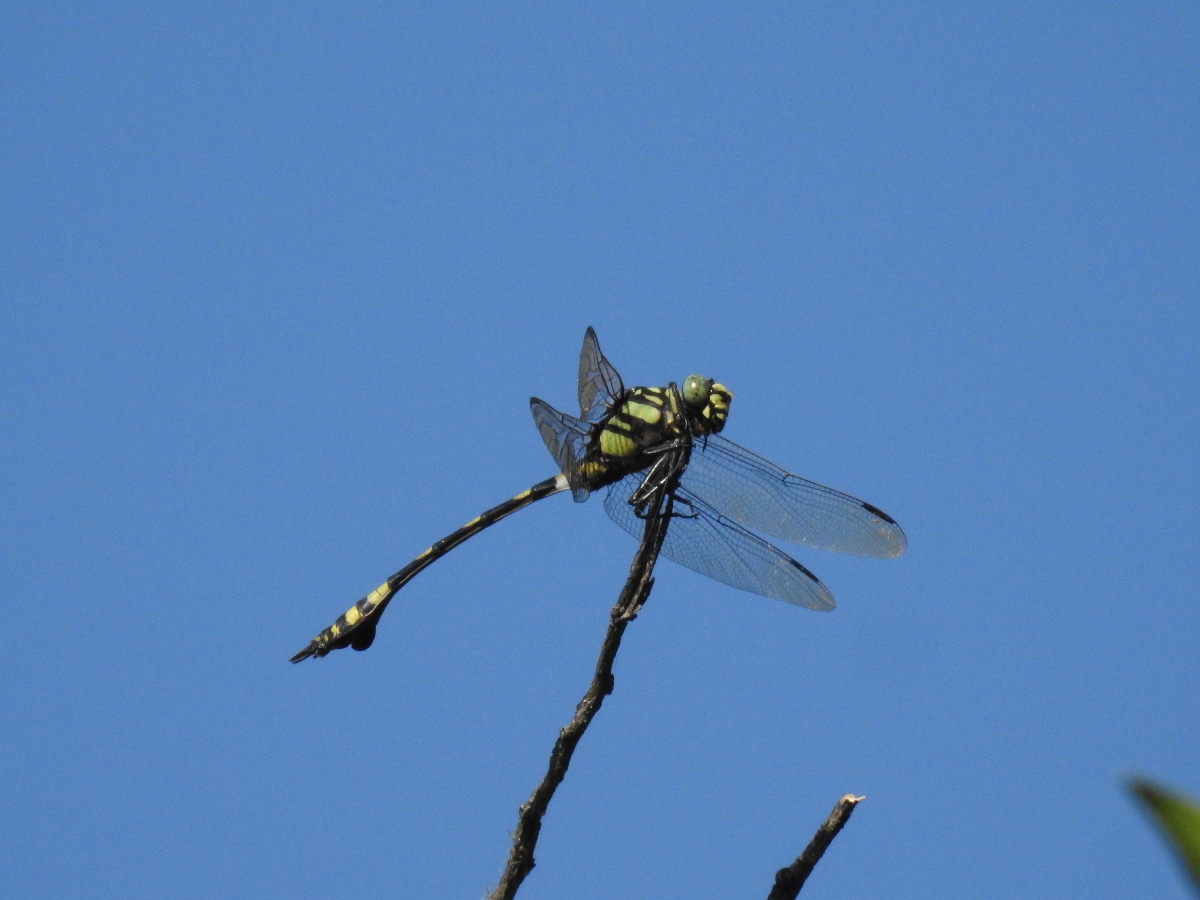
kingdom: Animalia
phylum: Arthropoda
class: Insecta
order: Odonata
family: Gomphidae
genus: Ictinogomphus
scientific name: Ictinogomphus rapax
